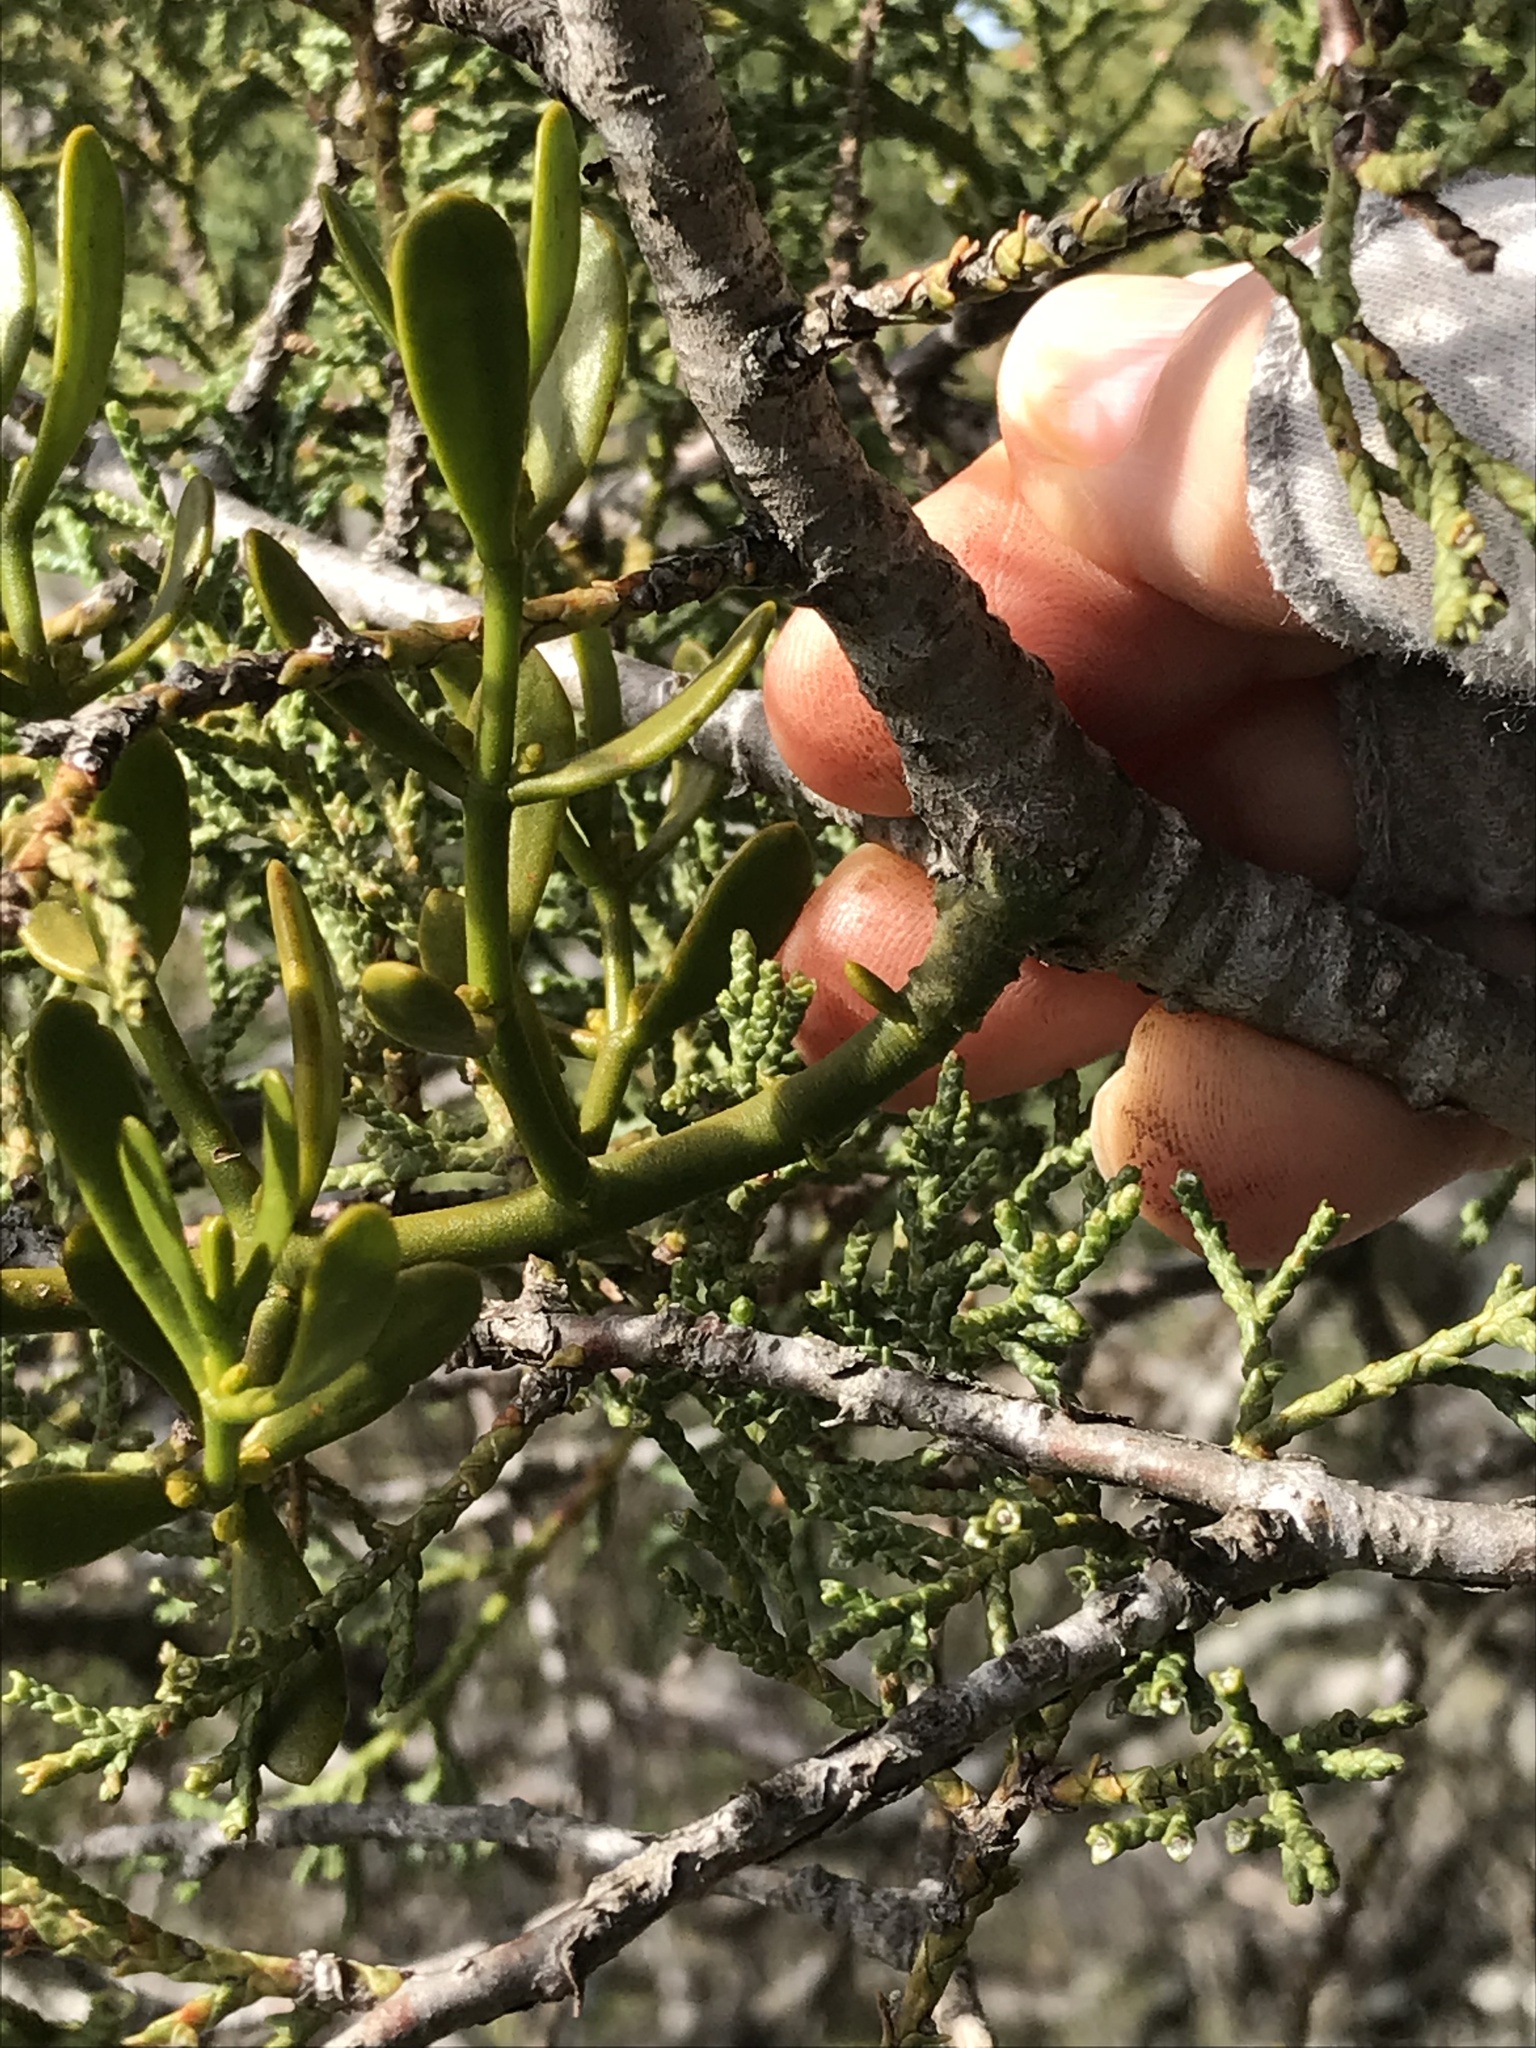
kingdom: Plantae
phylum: Tracheophyta
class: Magnoliopsida
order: Santalales
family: Viscaceae
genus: Phoradendron
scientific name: Phoradendron bolleanum
